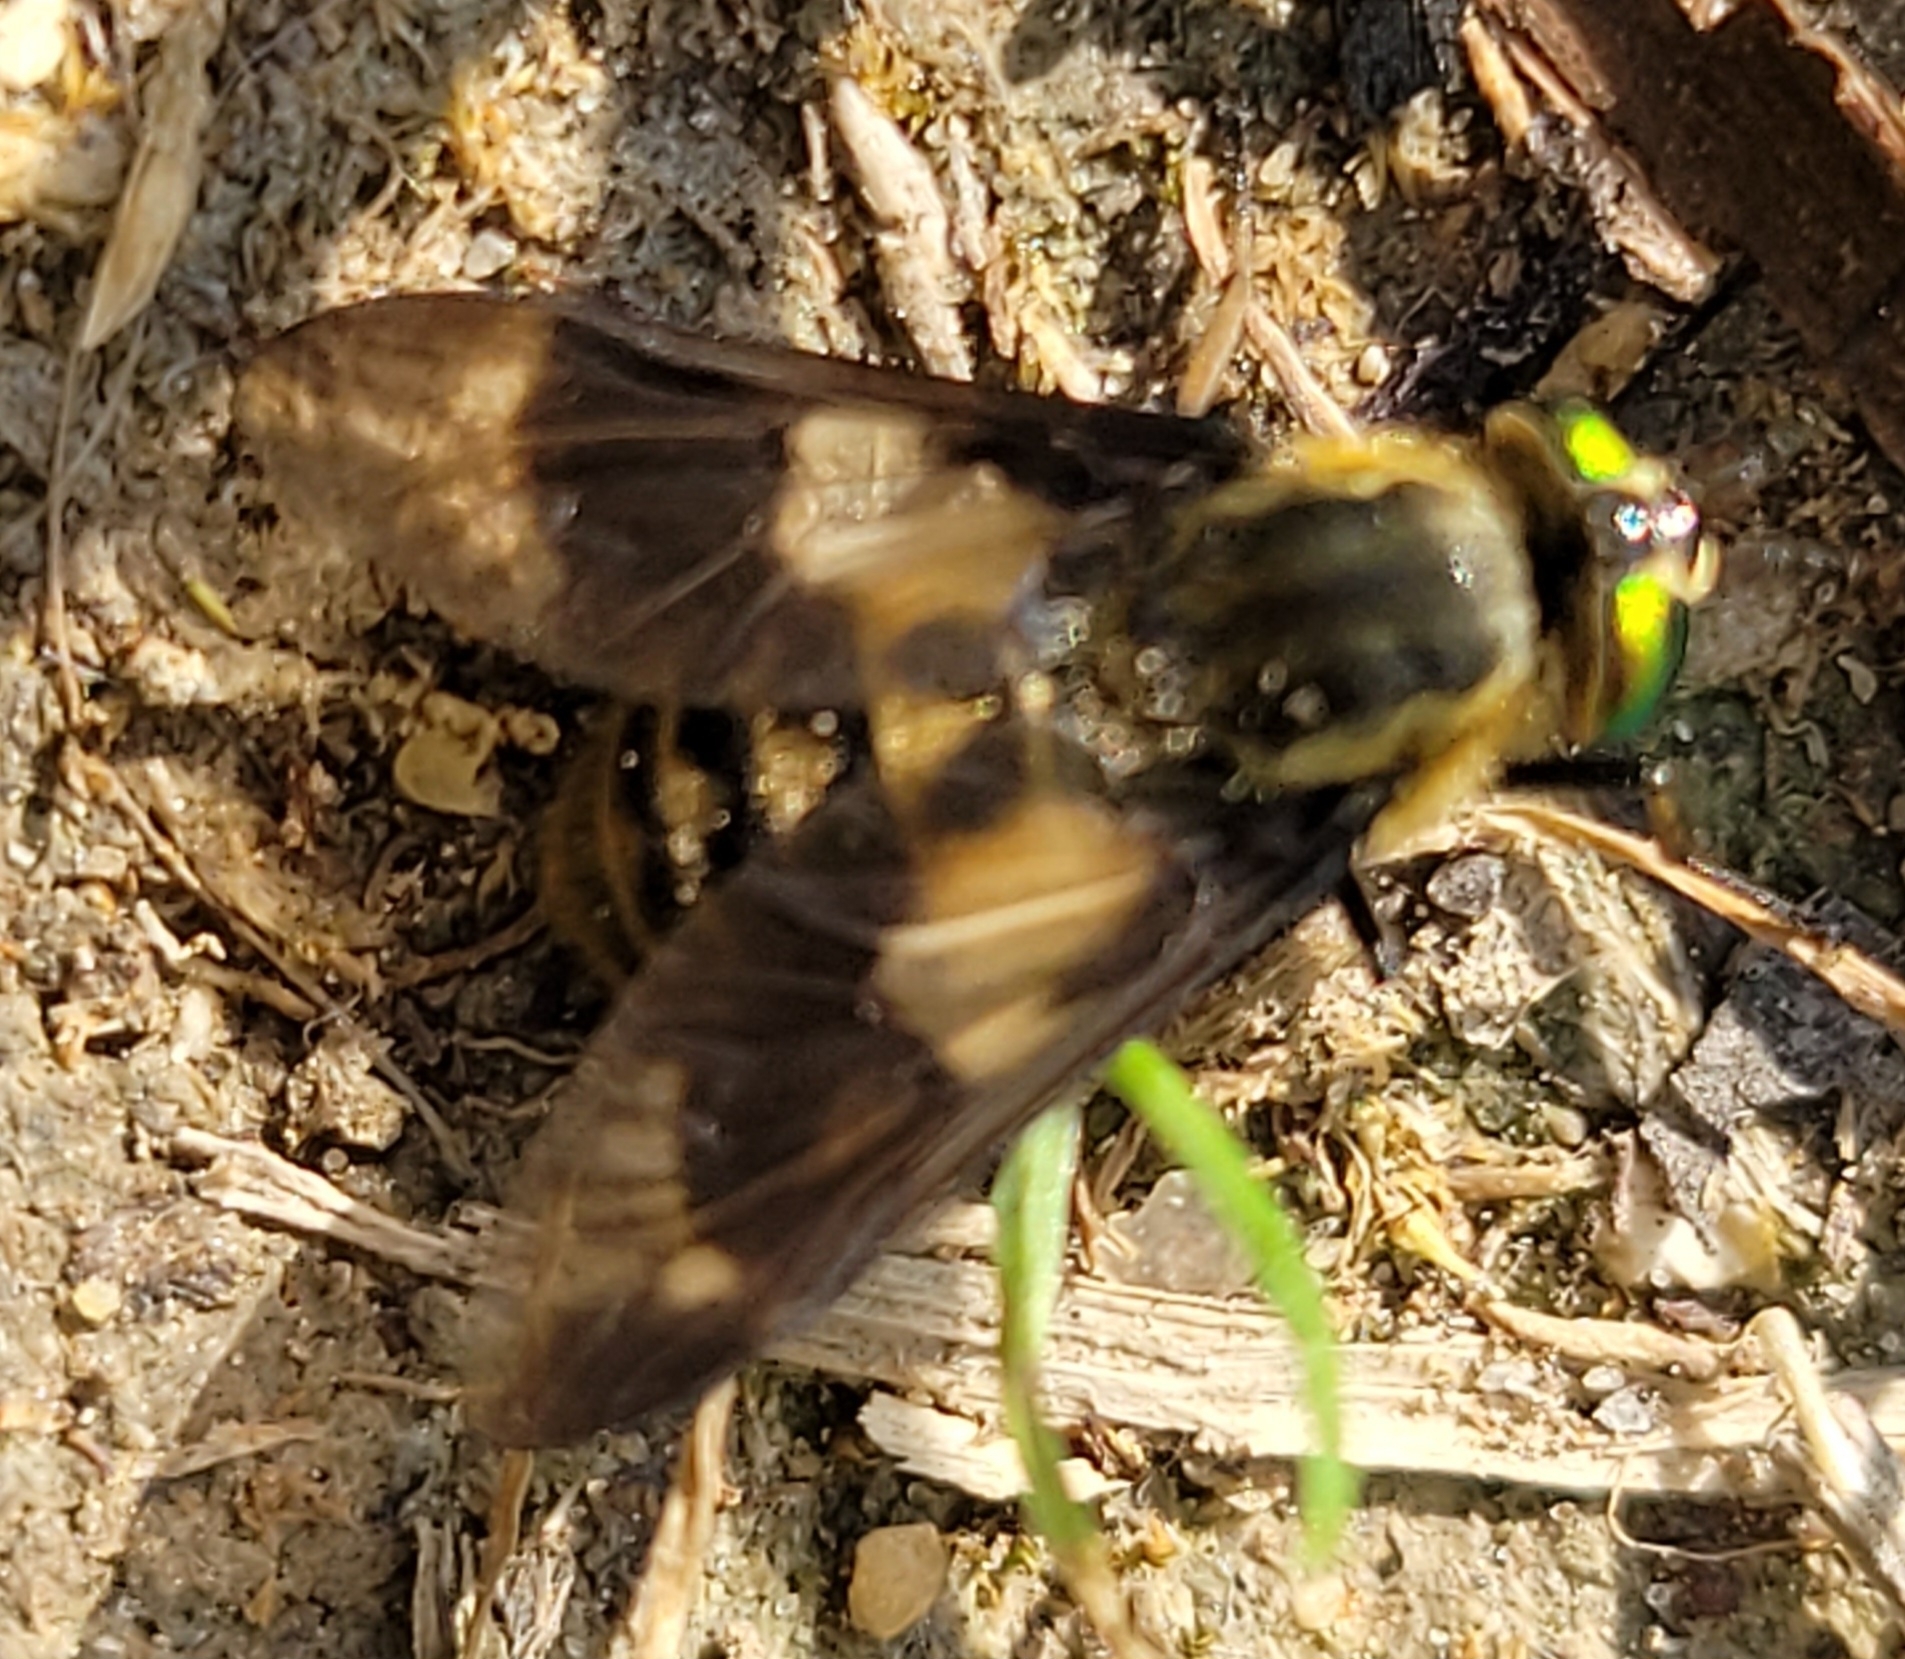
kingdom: Animalia
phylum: Arthropoda
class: Insecta
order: Diptera
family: Tabanidae
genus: Chrysops
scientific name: Chrysops relictus
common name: Twin-lobed deerfly
